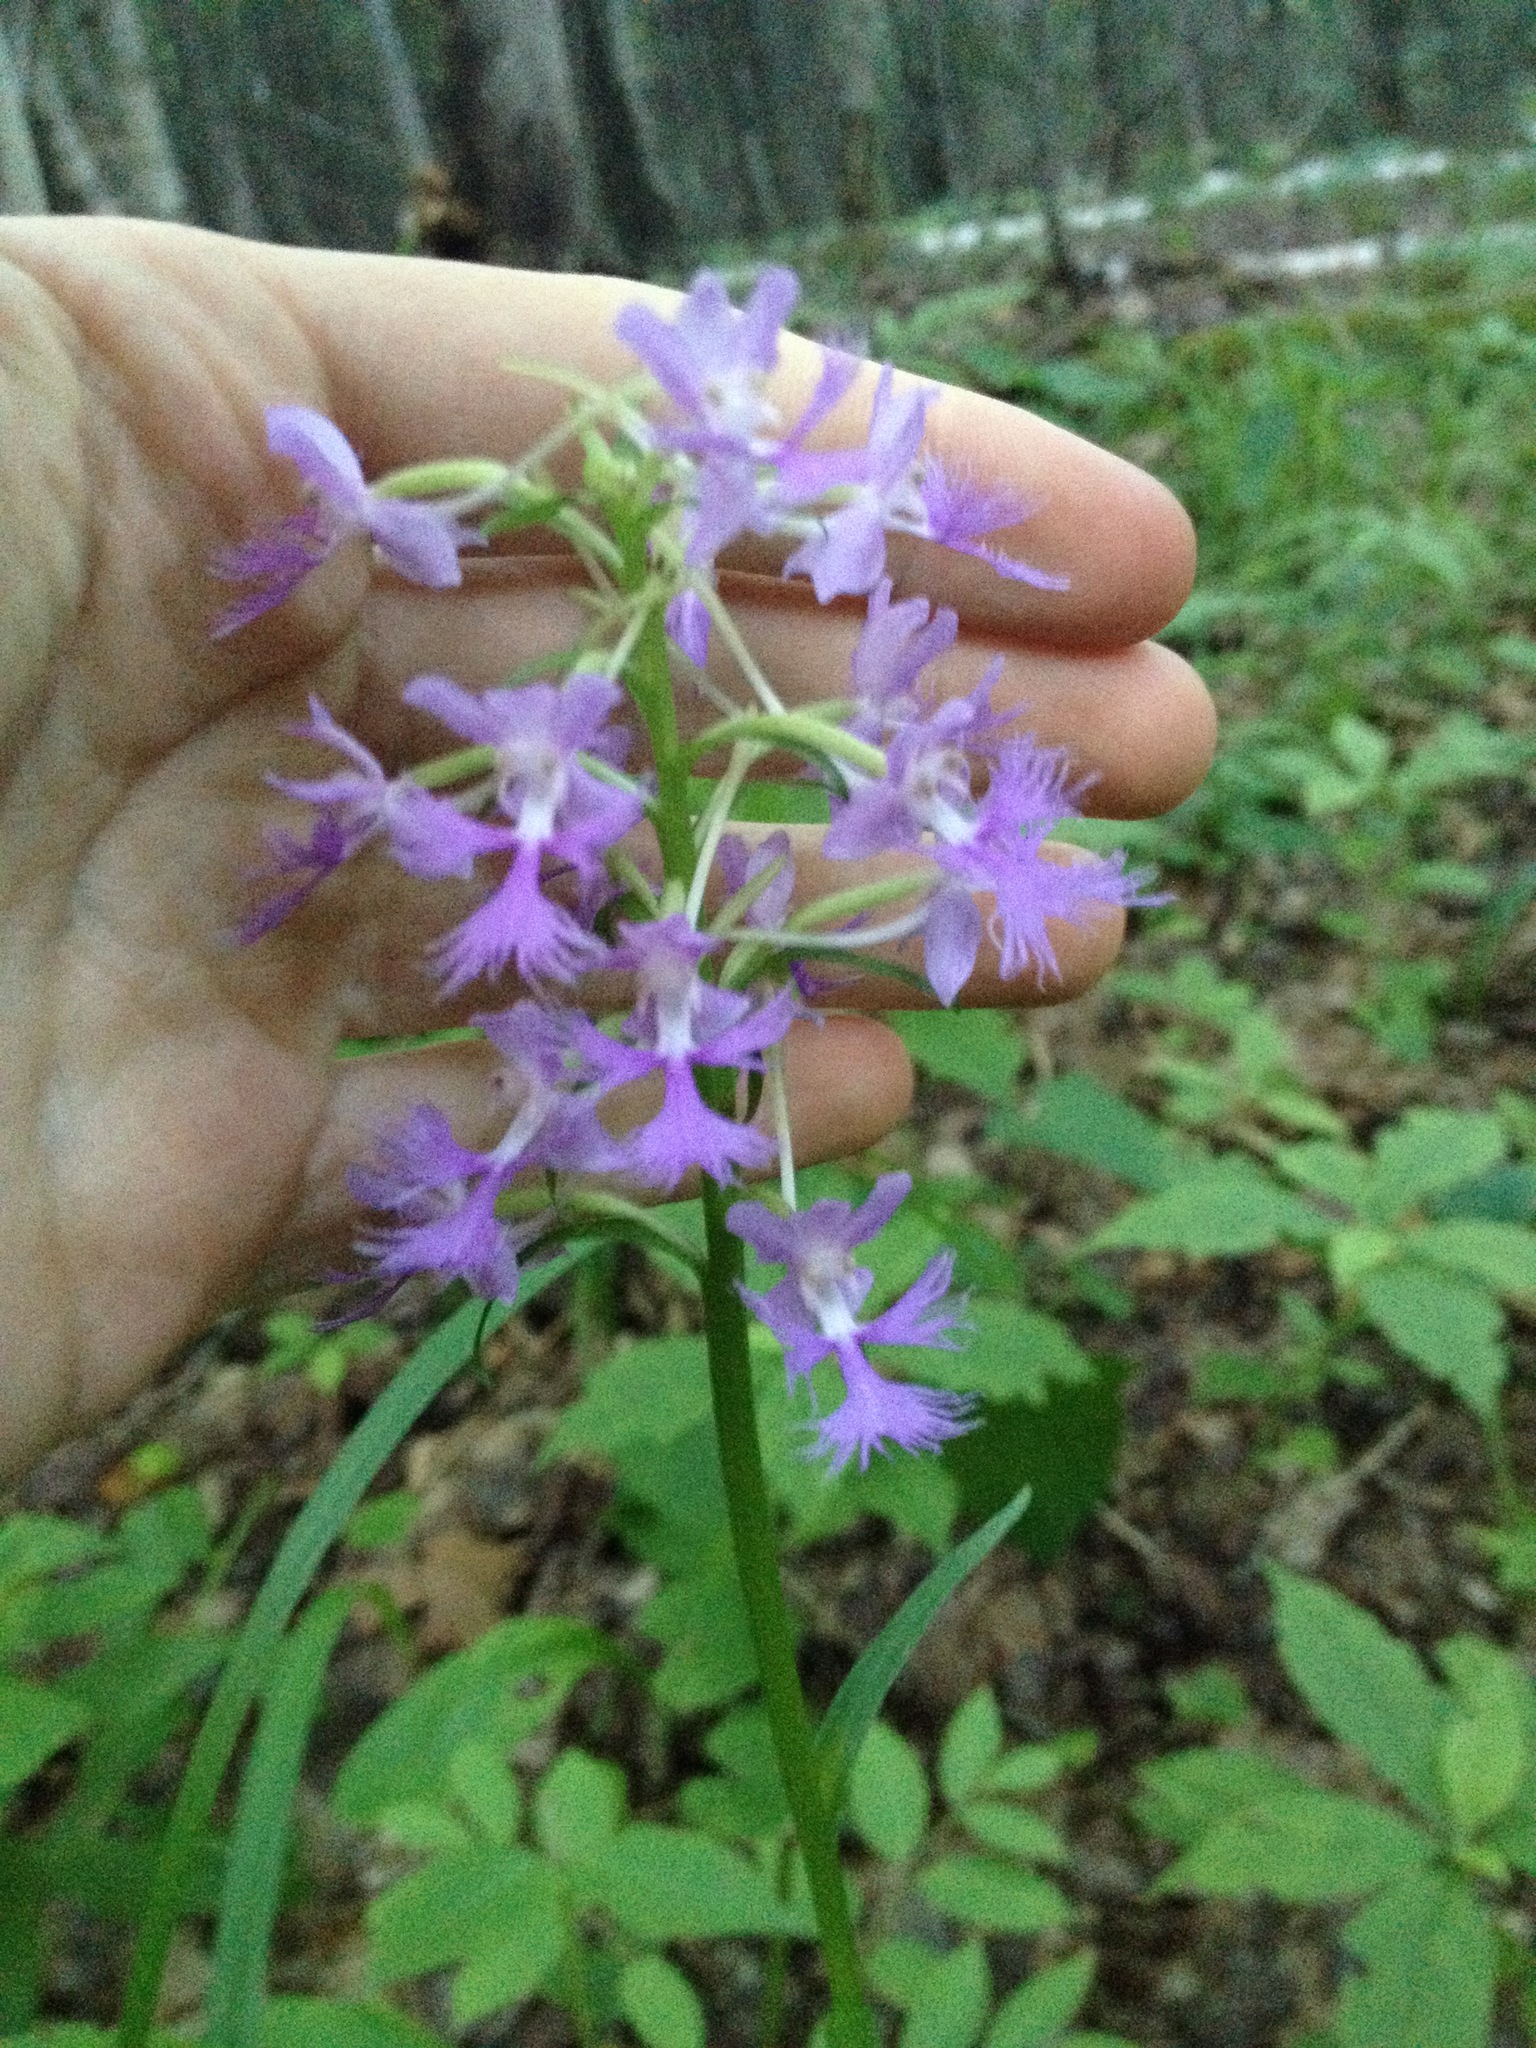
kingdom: Plantae
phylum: Tracheophyta
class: Liliopsida
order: Asparagales
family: Orchidaceae
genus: Platanthera
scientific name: Platanthera grandiflora
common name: Greater purple fringed orchid
